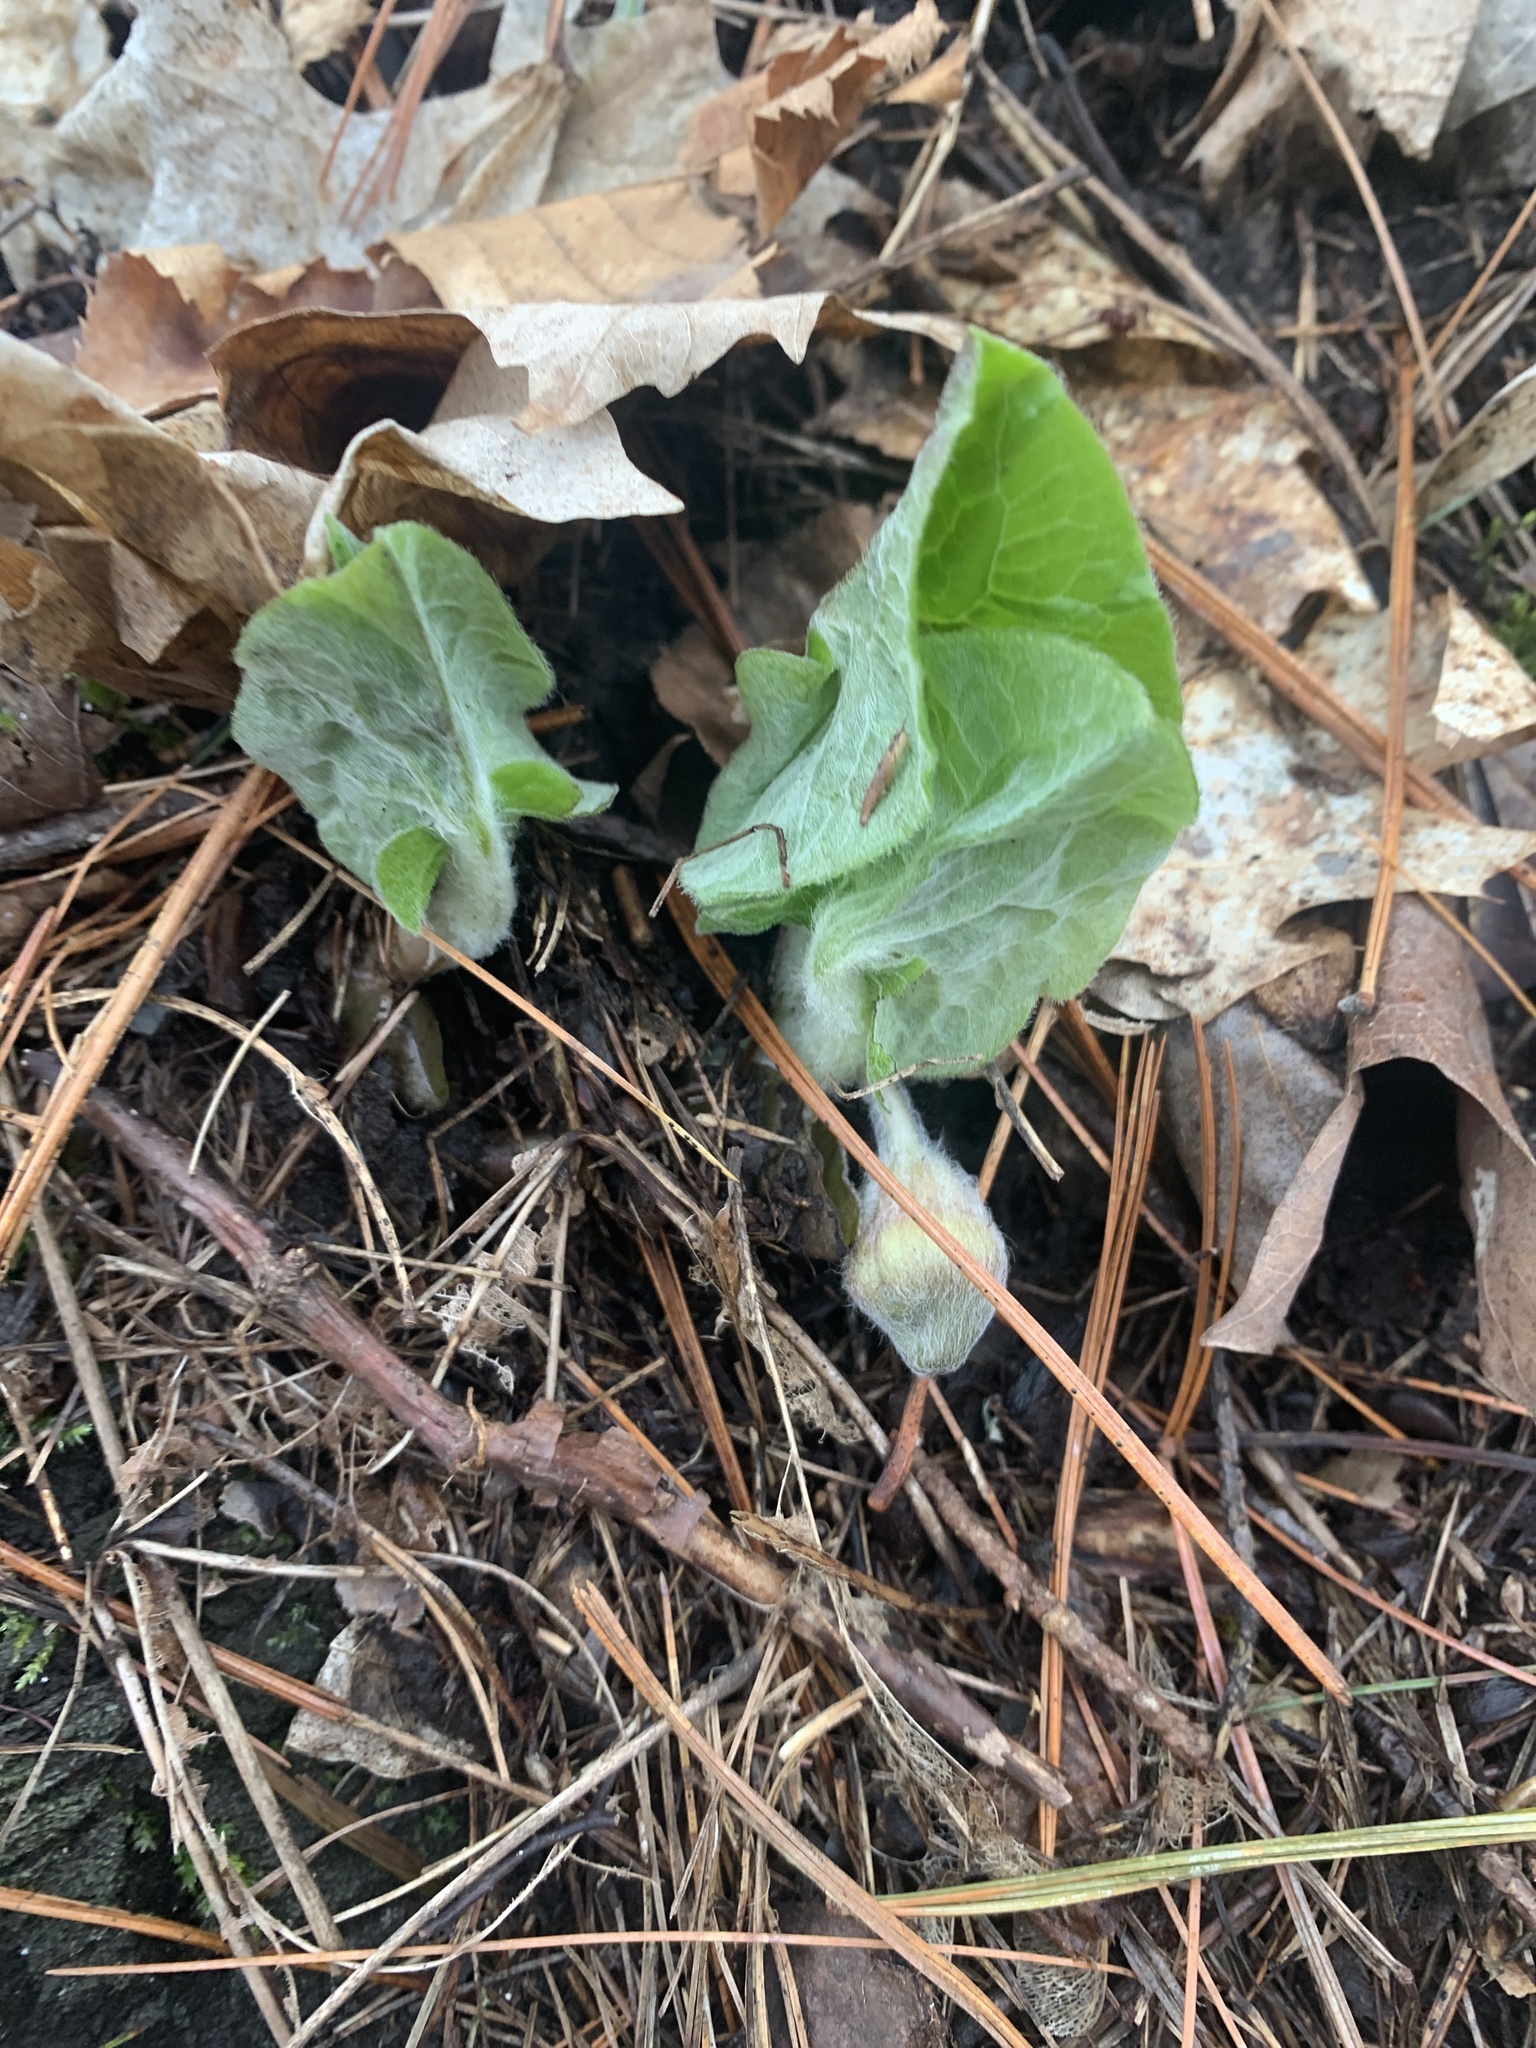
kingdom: Plantae
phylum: Tracheophyta
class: Magnoliopsida
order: Piperales
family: Aristolochiaceae
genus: Asarum
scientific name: Asarum canadense
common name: Wild ginger
